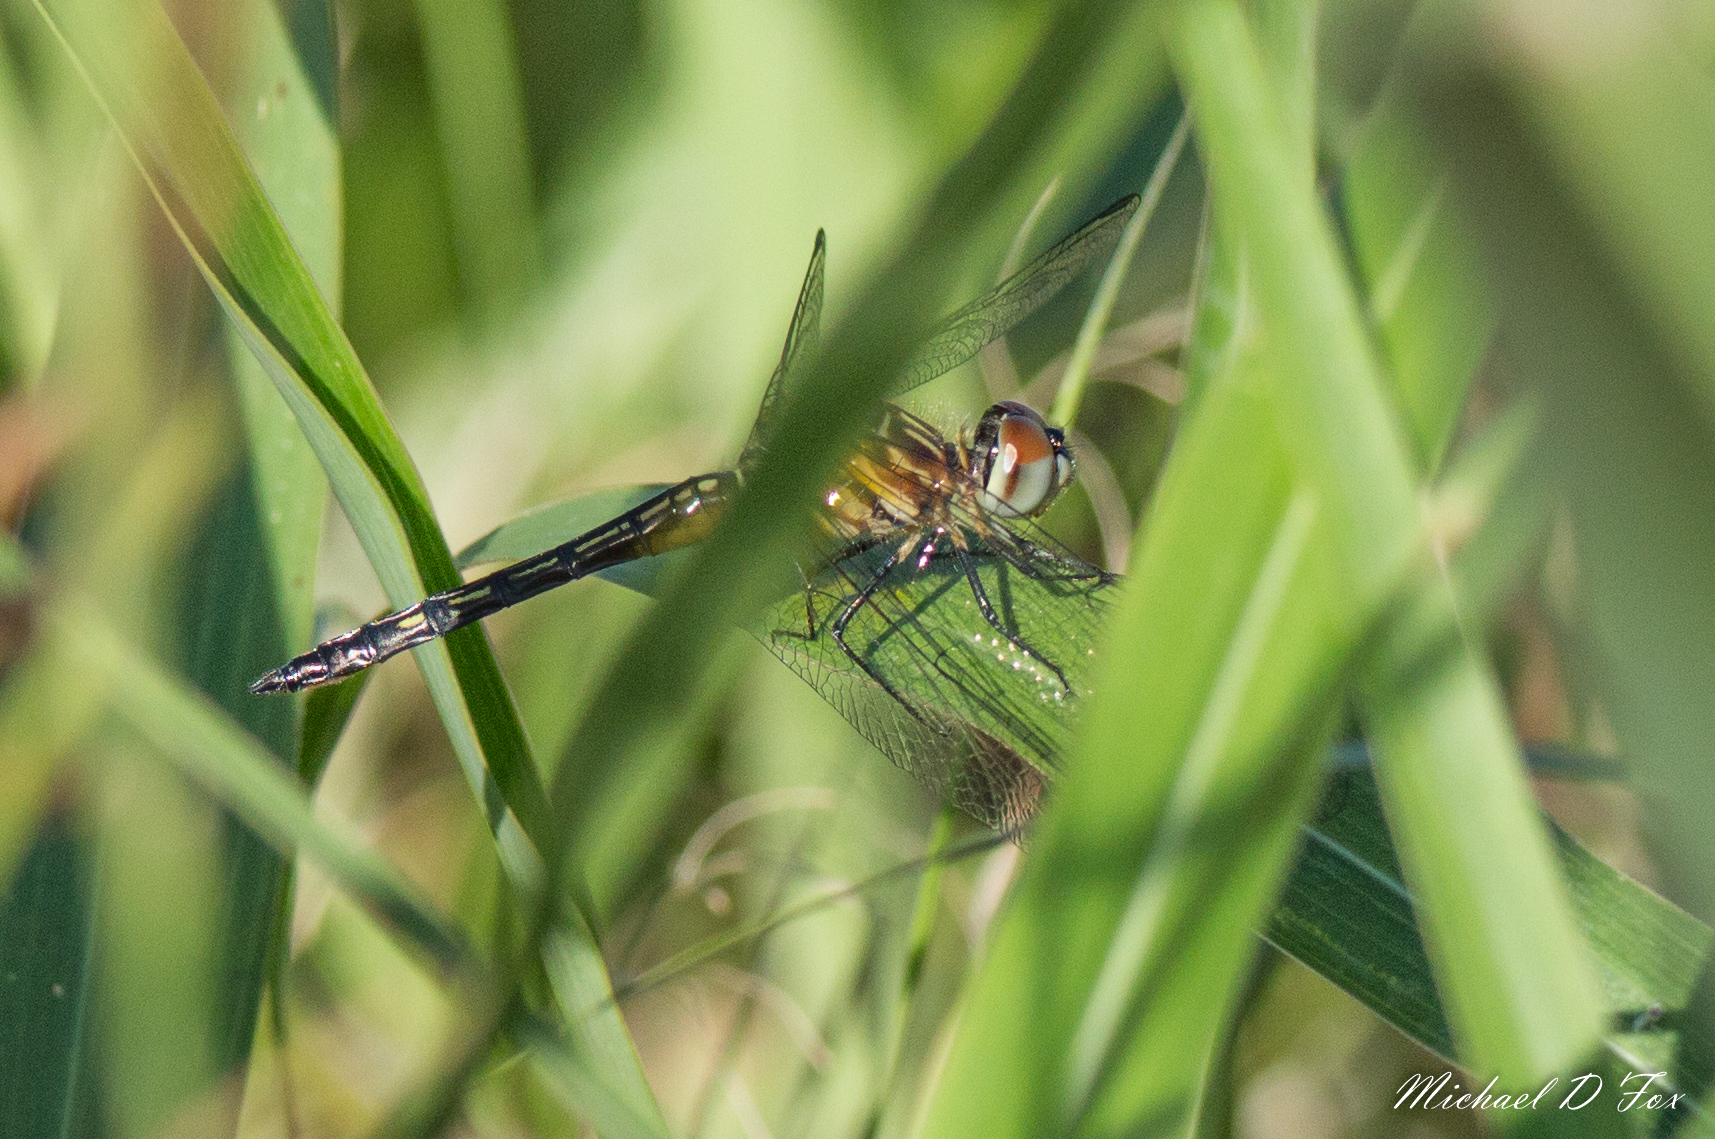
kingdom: Animalia
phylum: Arthropoda
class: Insecta
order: Odonata
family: Libellulidae
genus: Pachydiplax
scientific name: Pachydiplax longipennis
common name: Blue dasher
